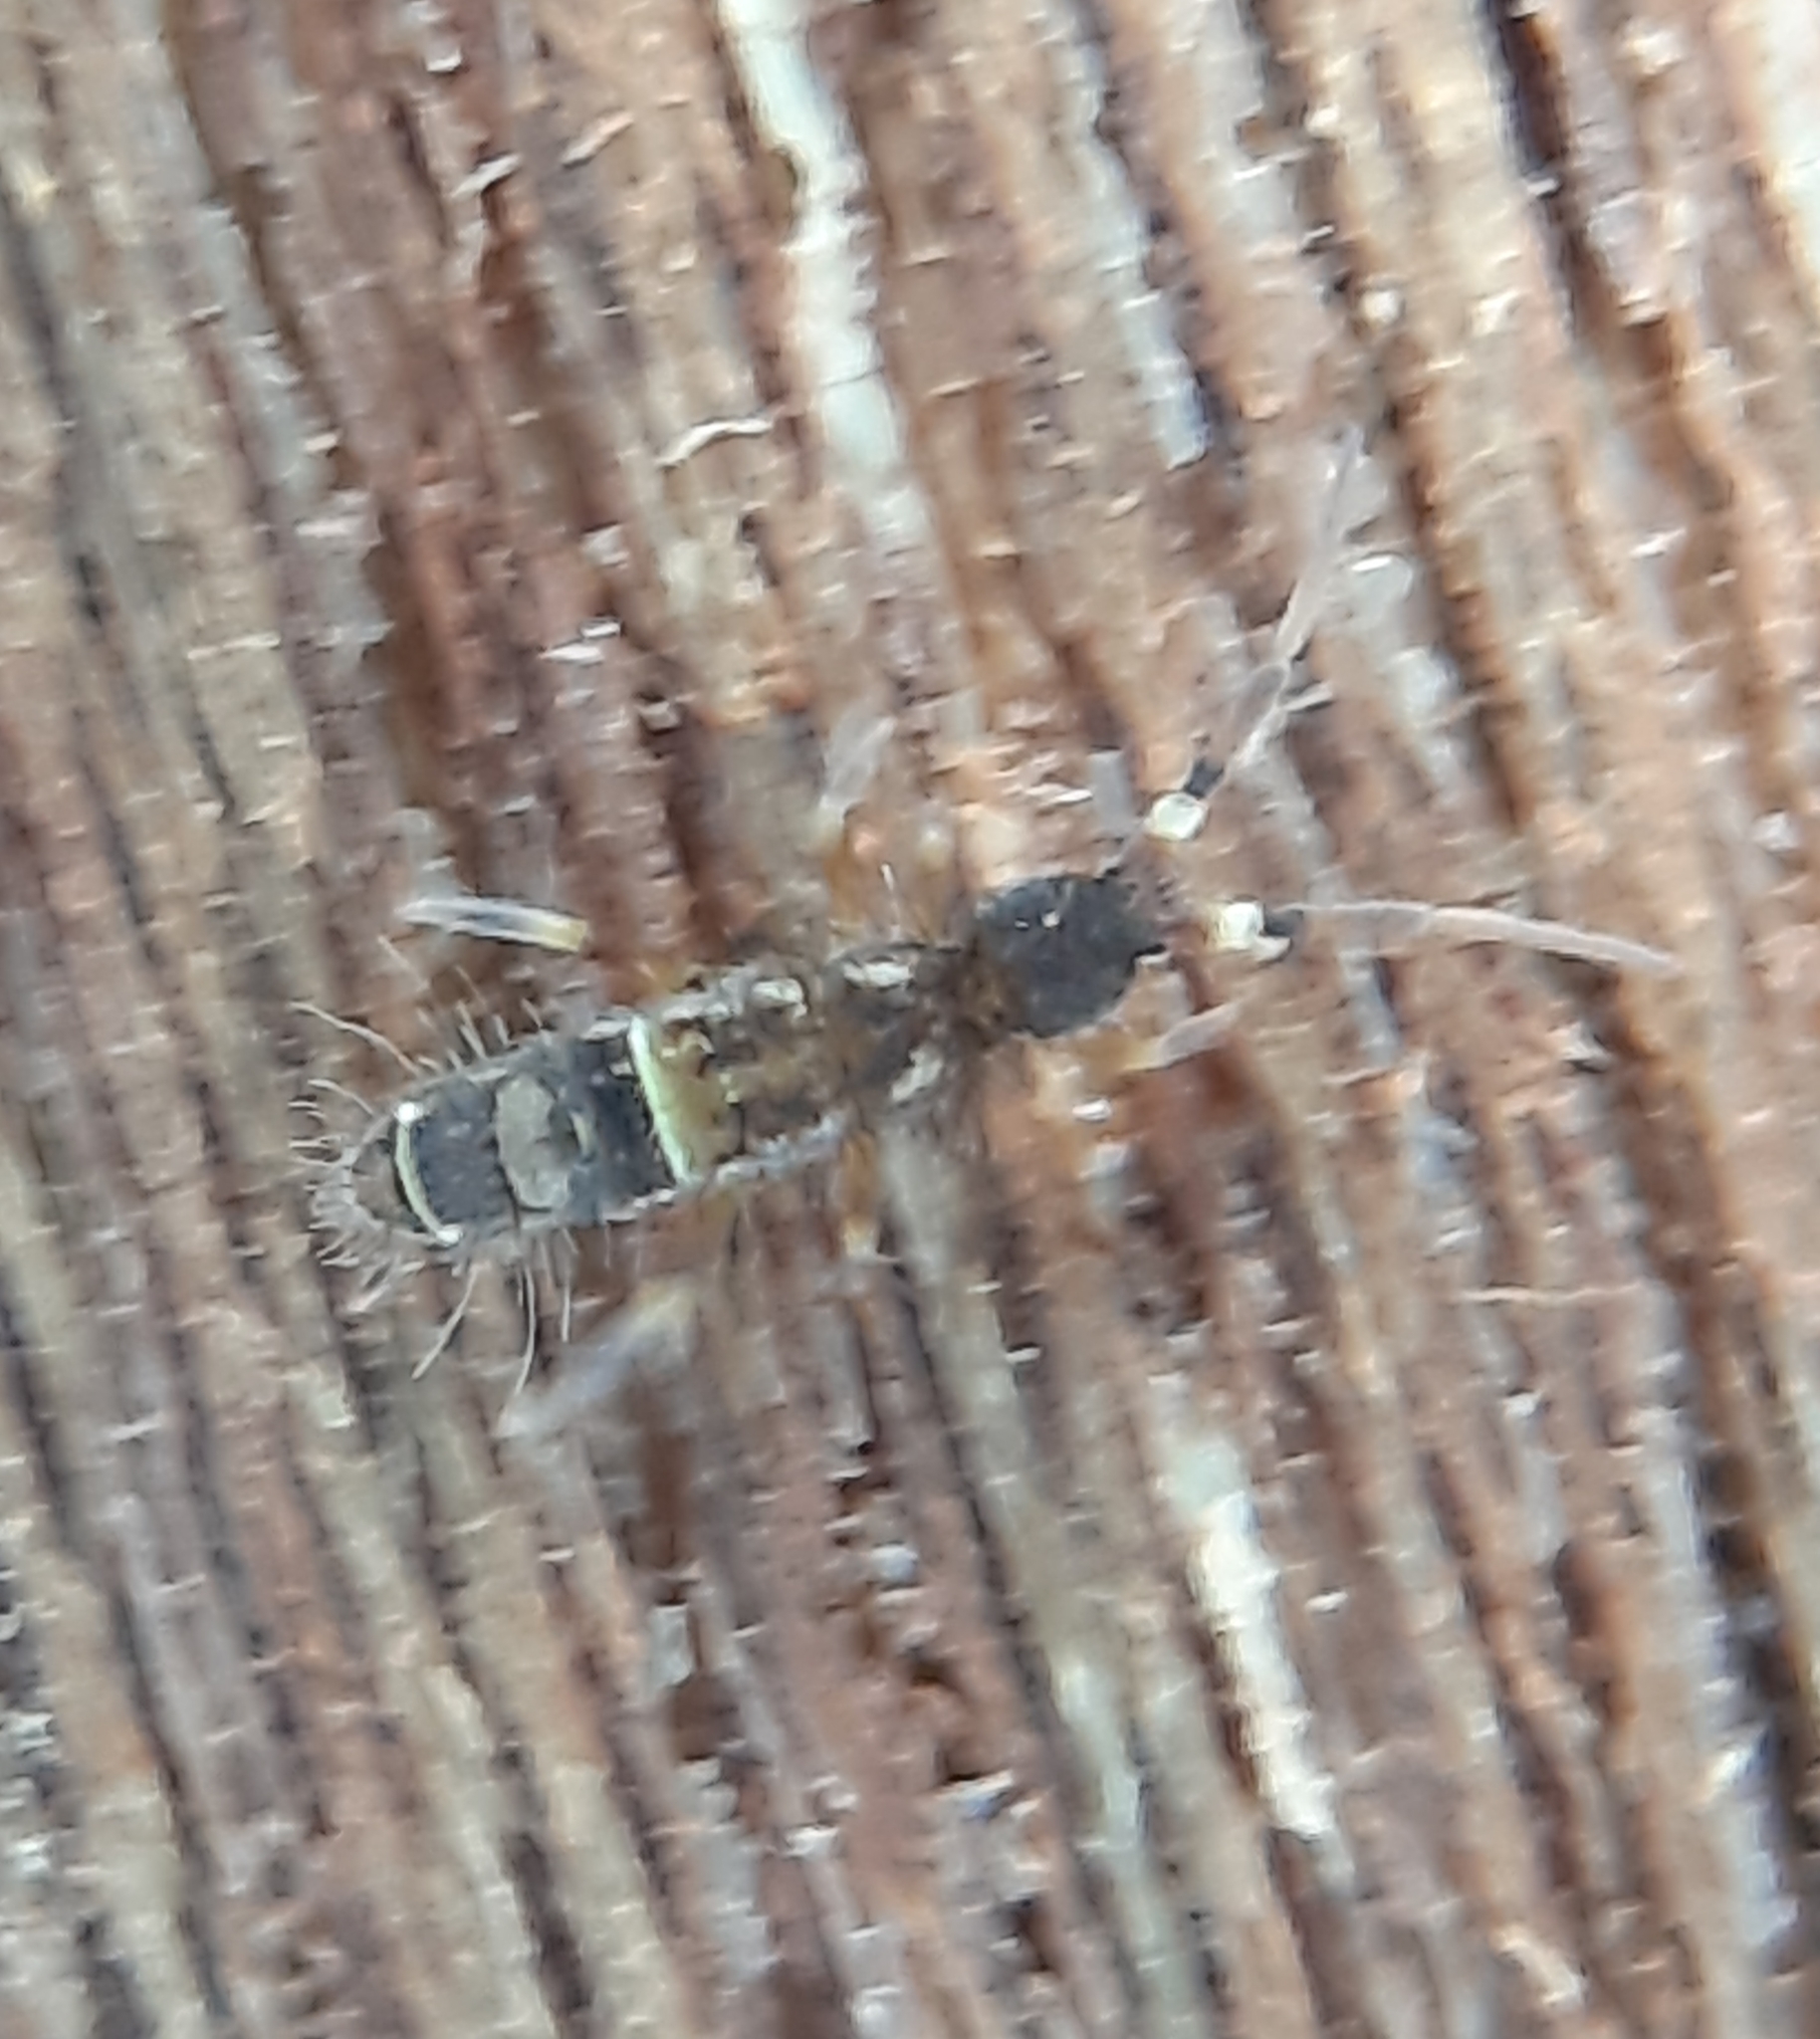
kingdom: Animalia
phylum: Arthropoda
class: Collembola
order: Entomobryomorpha
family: Orchesellidae
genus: Orchesella
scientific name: Orchesella cincta
